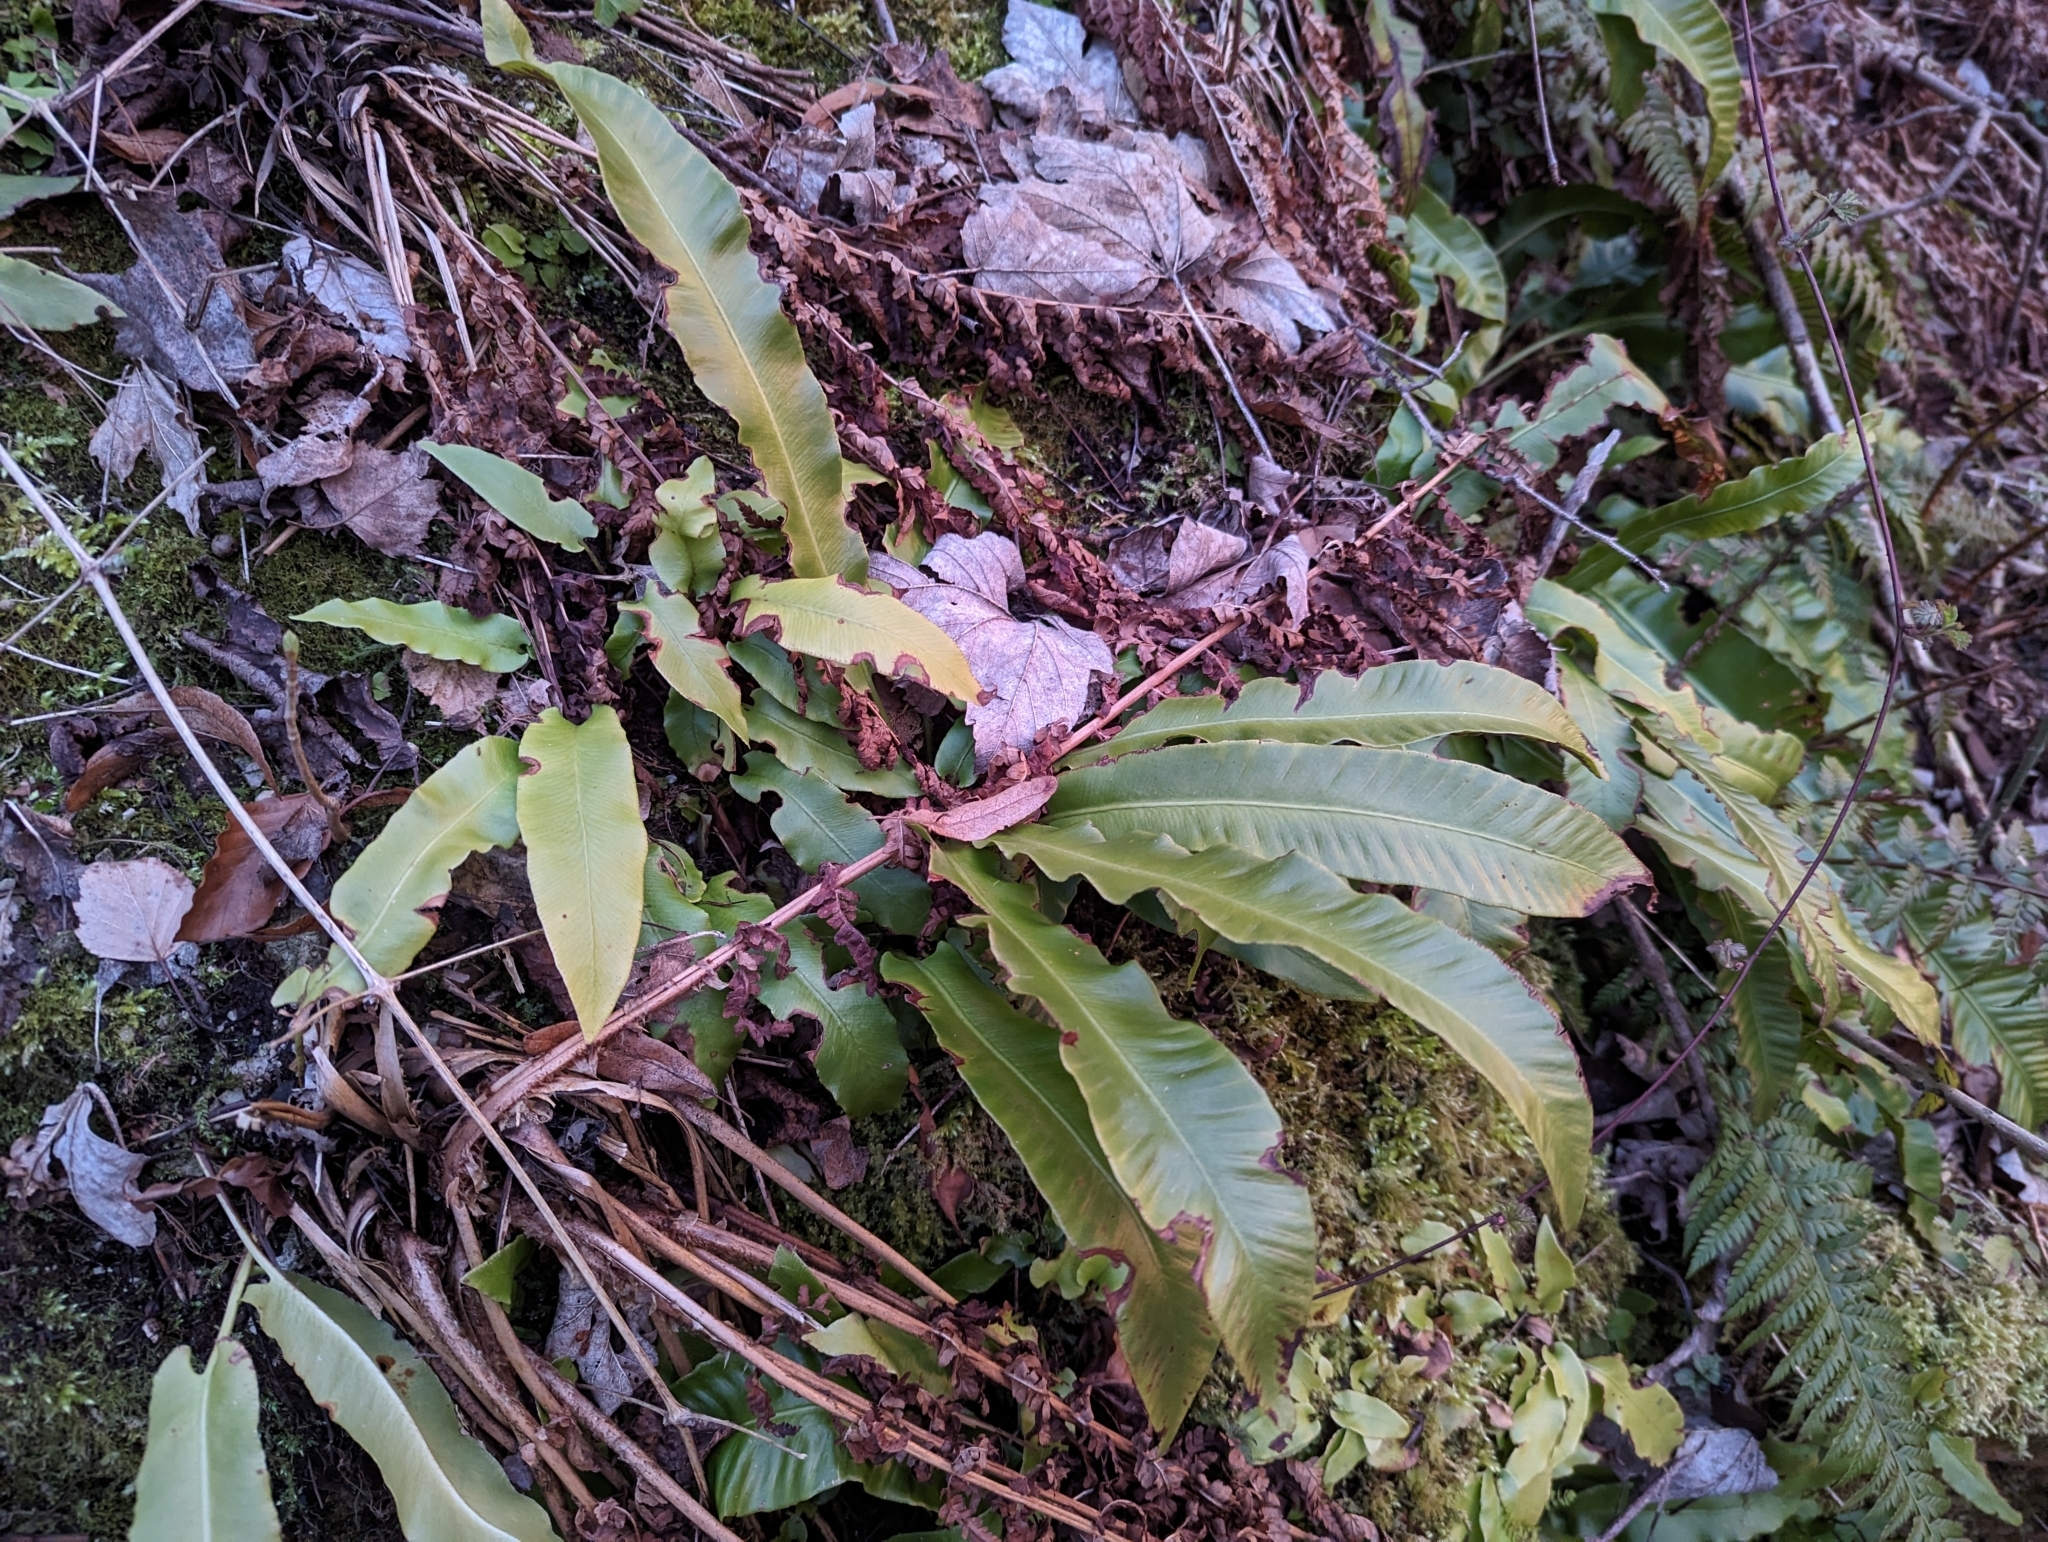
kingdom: Plantae
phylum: Tracheophyta
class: Polypodiopsida
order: Polypodiales
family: Aspleniaceae
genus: Asplenium
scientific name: Asplenium scolopendrium
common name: Hart's-tongue fern
